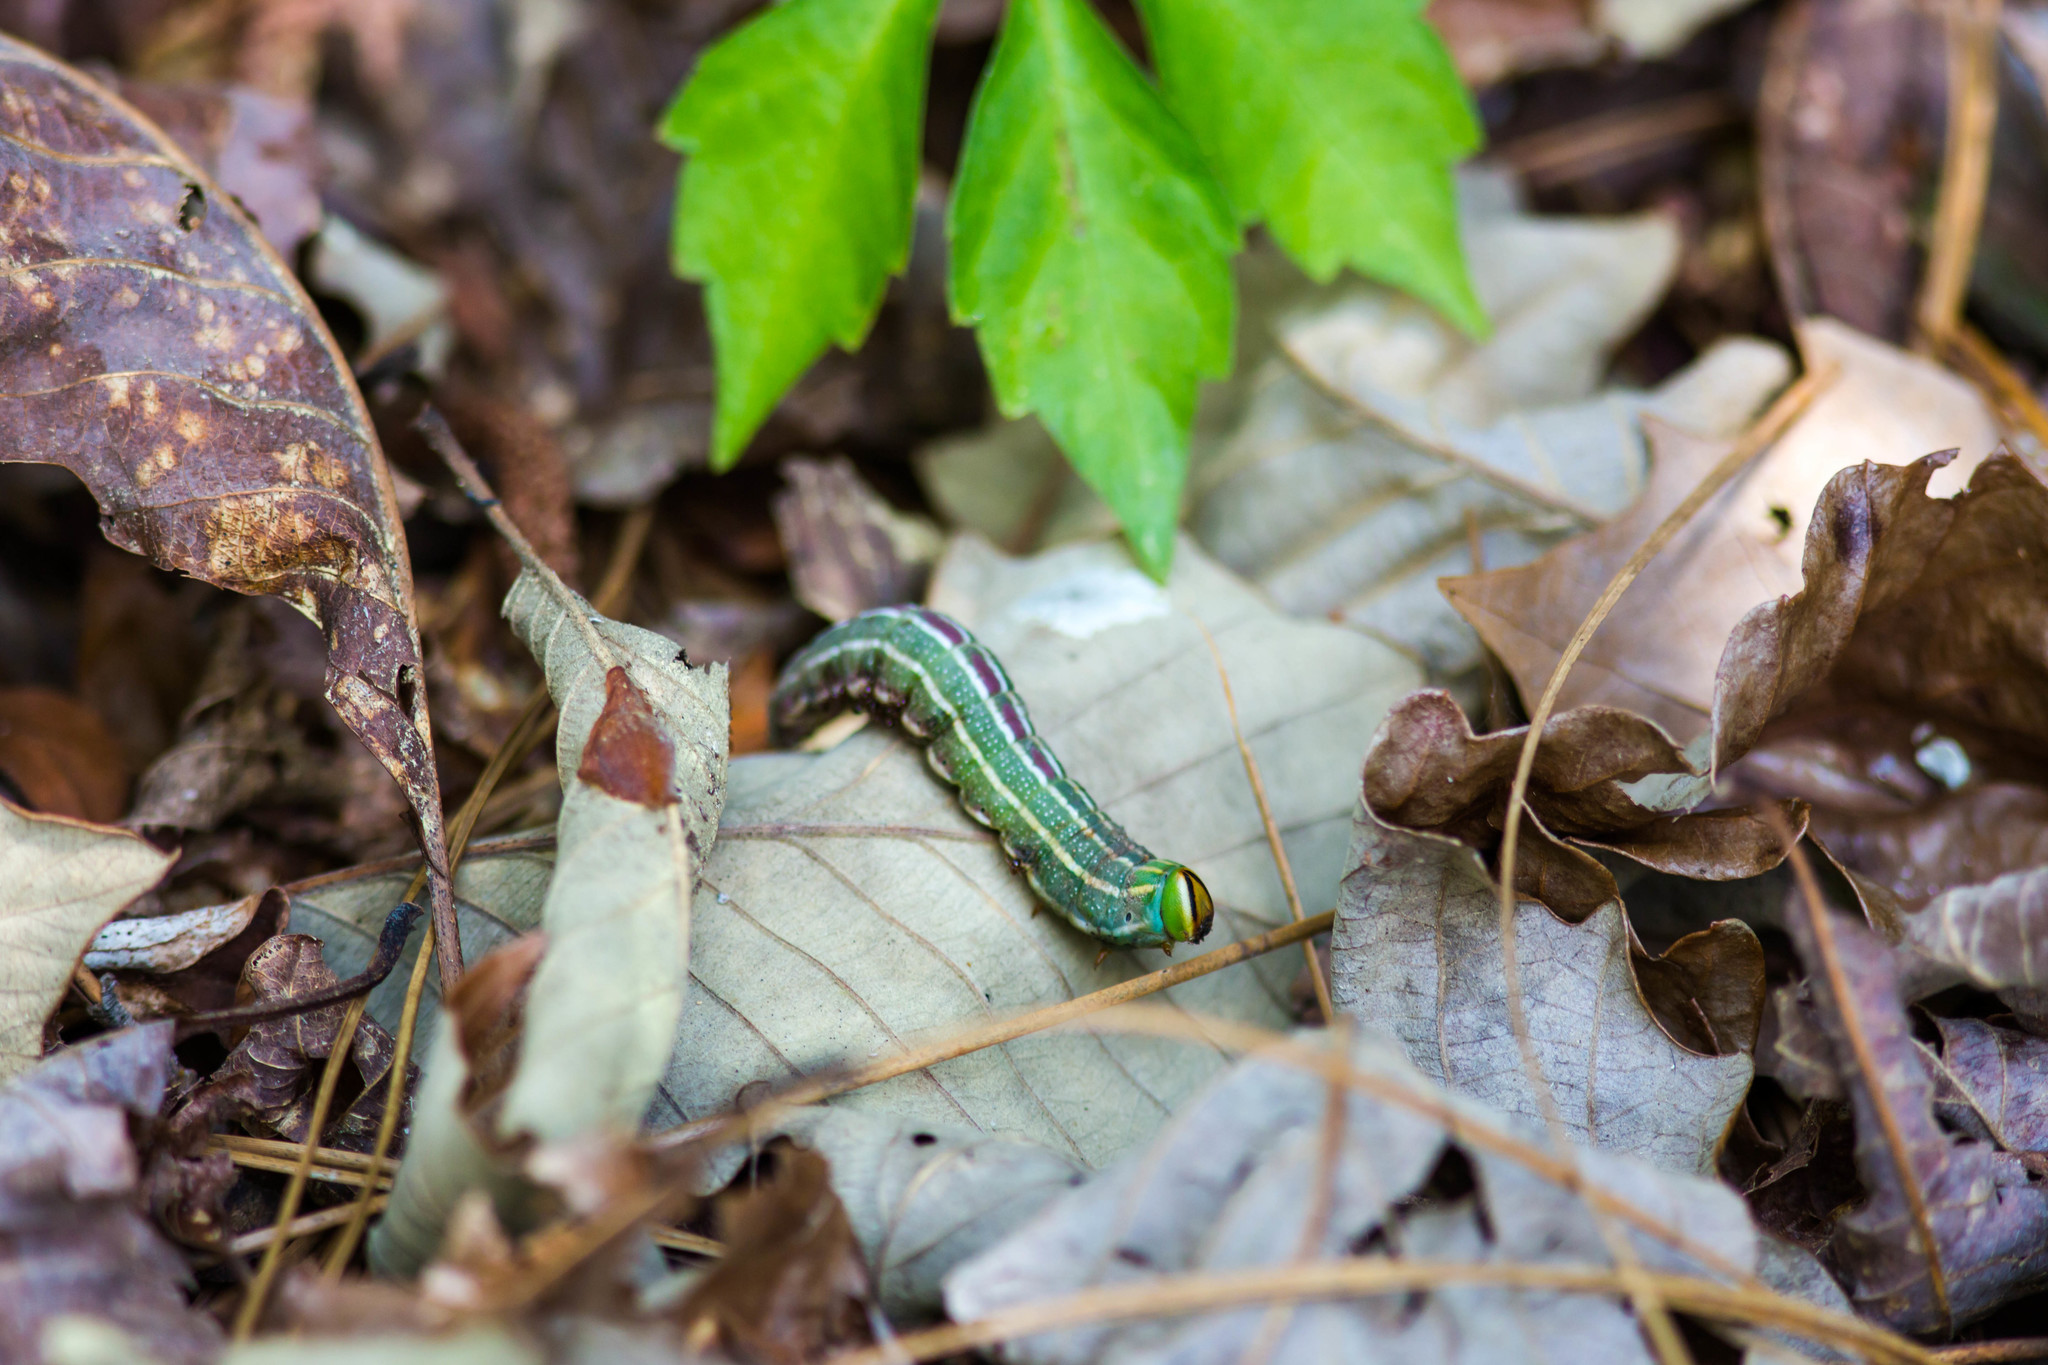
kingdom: Animalia
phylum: Arthropoda
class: Insecta
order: Lepidoptera
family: Sphingidae
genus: Lapara
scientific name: Lapara coniferarum
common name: Southern pine sphinx
